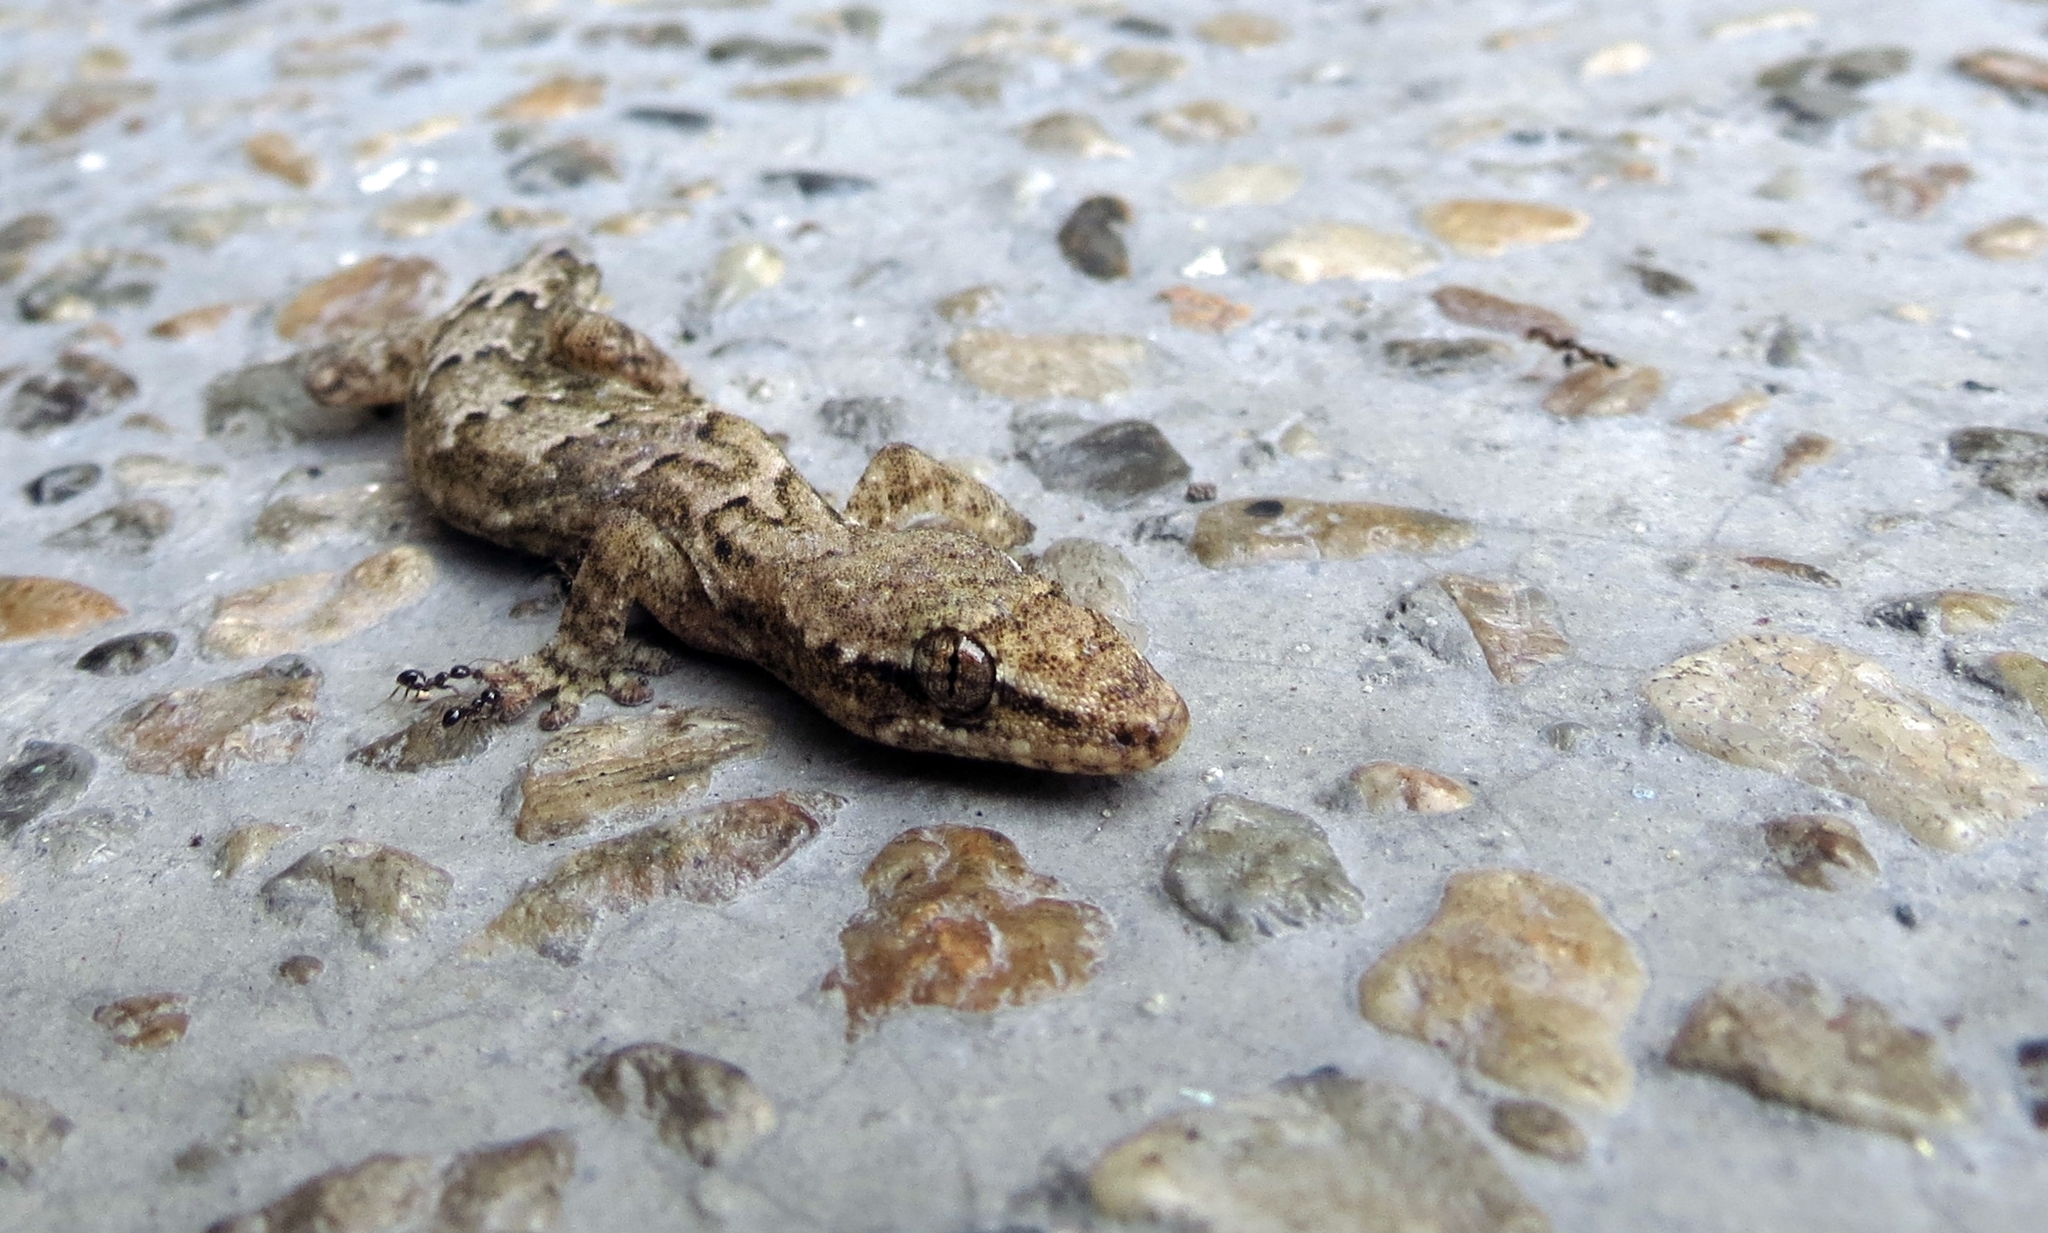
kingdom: Animalia
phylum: Chordata
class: Squamata
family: Gekkonidae
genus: Lepidodactylus
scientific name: Lepidodactylus lugubris
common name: Mourning gecko
